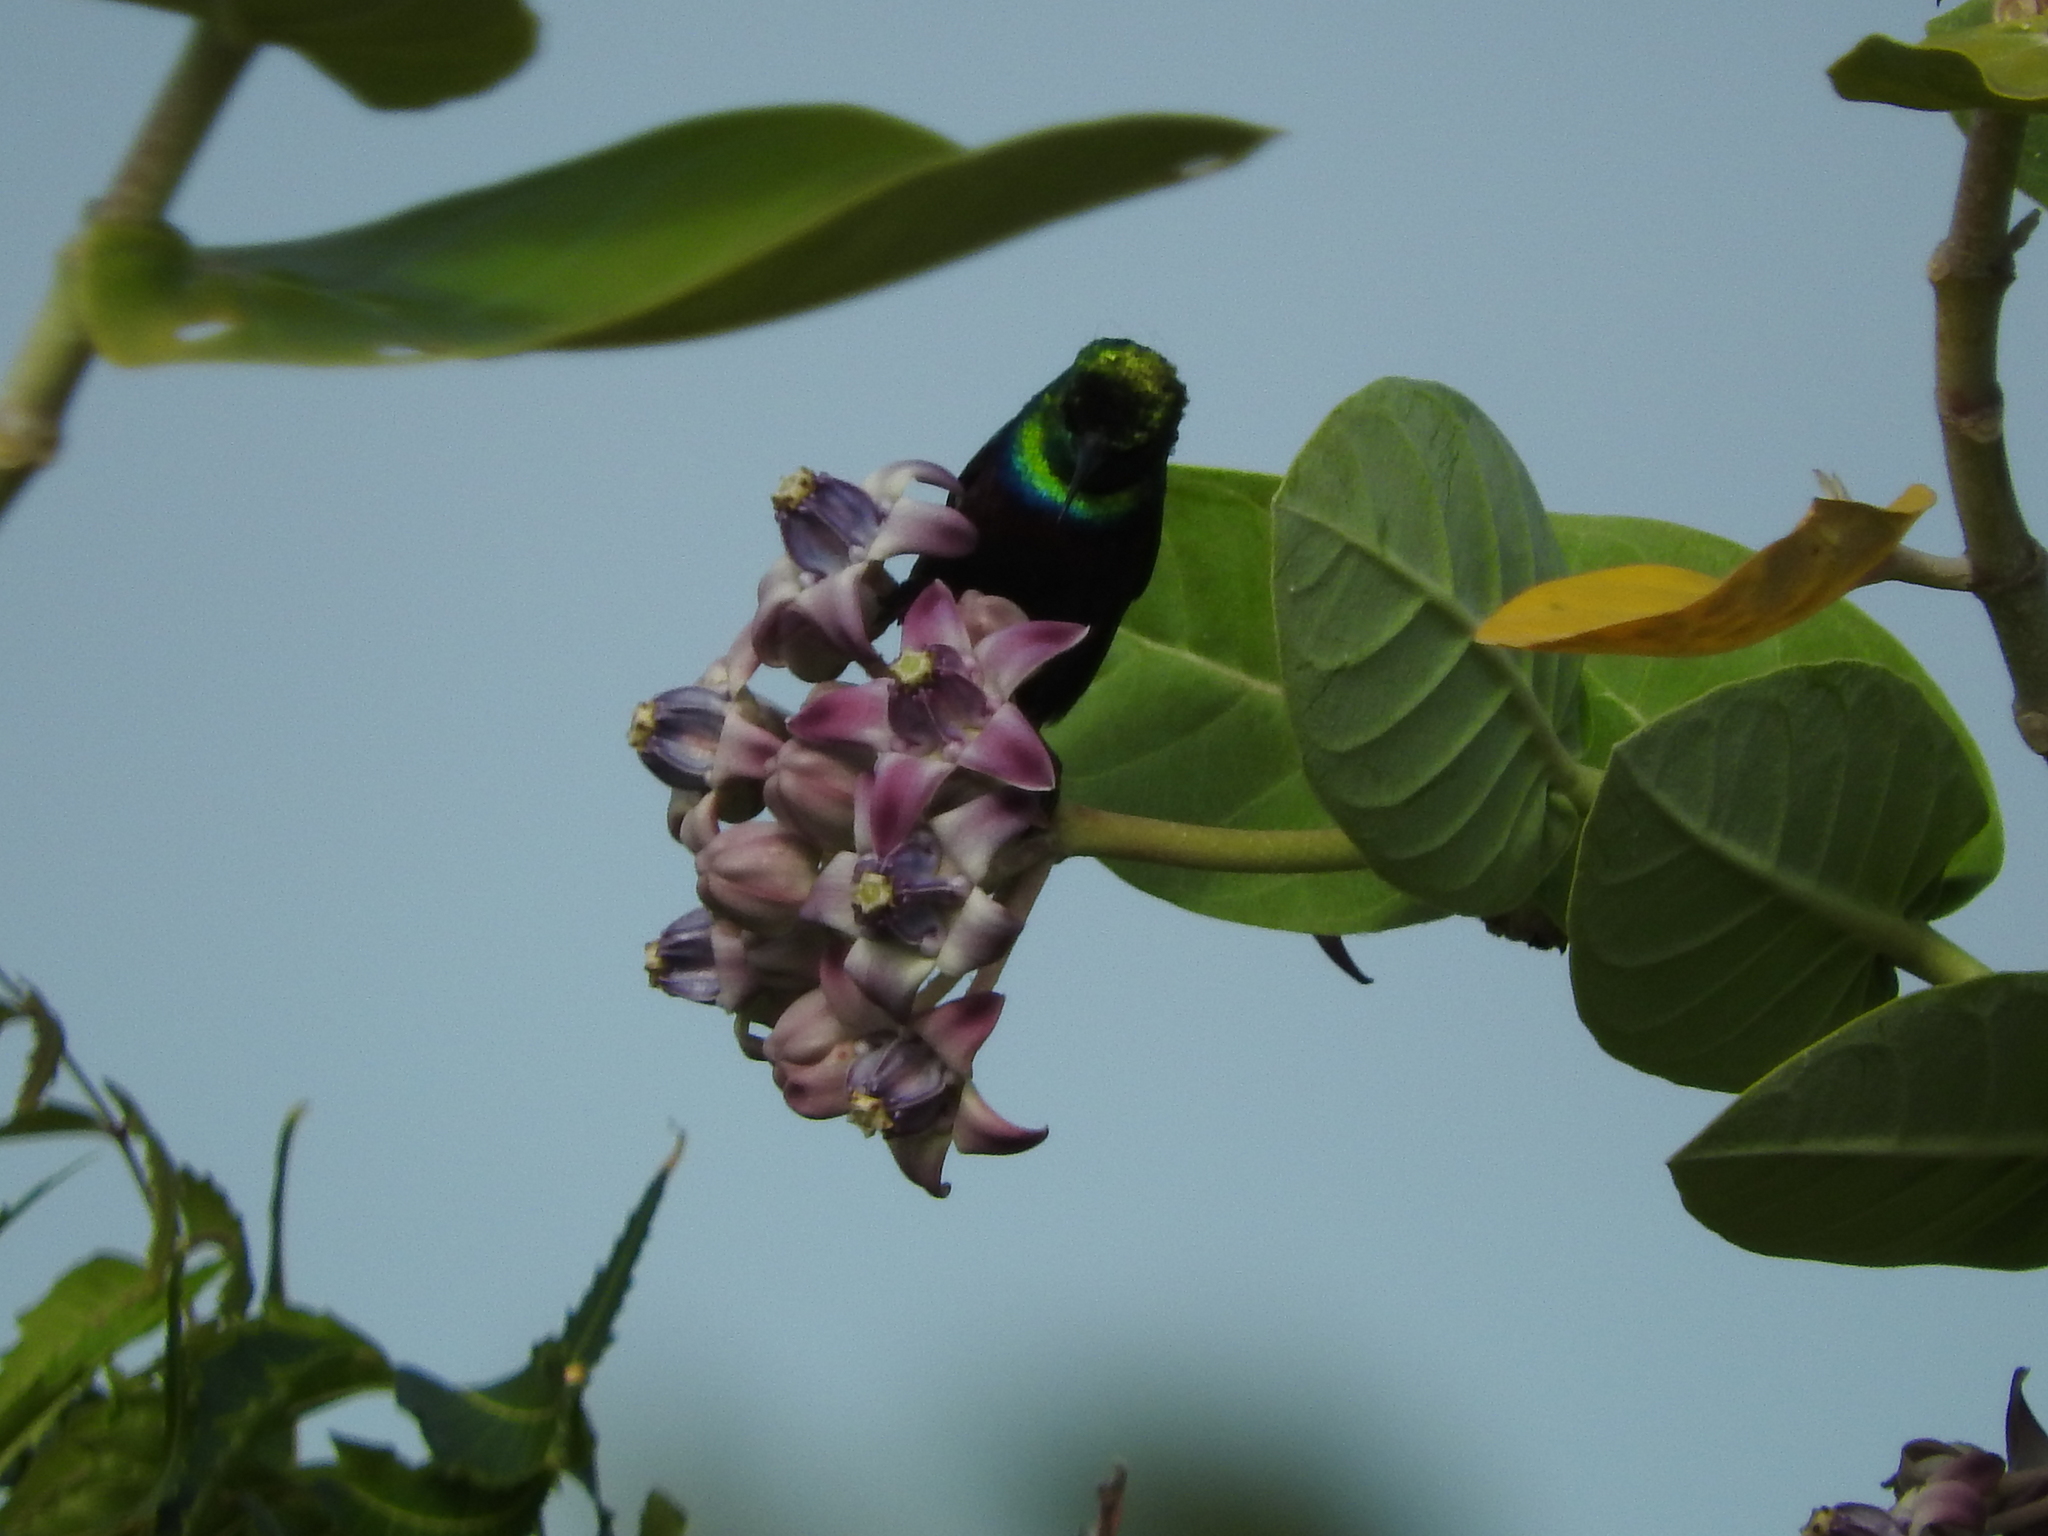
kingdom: Animalia
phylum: Chordata
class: Aves
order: Passeriformes
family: Nectariniidae
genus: Cinnyris
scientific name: Cinnyris bifasciatus
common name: Purple-banded sunbird
